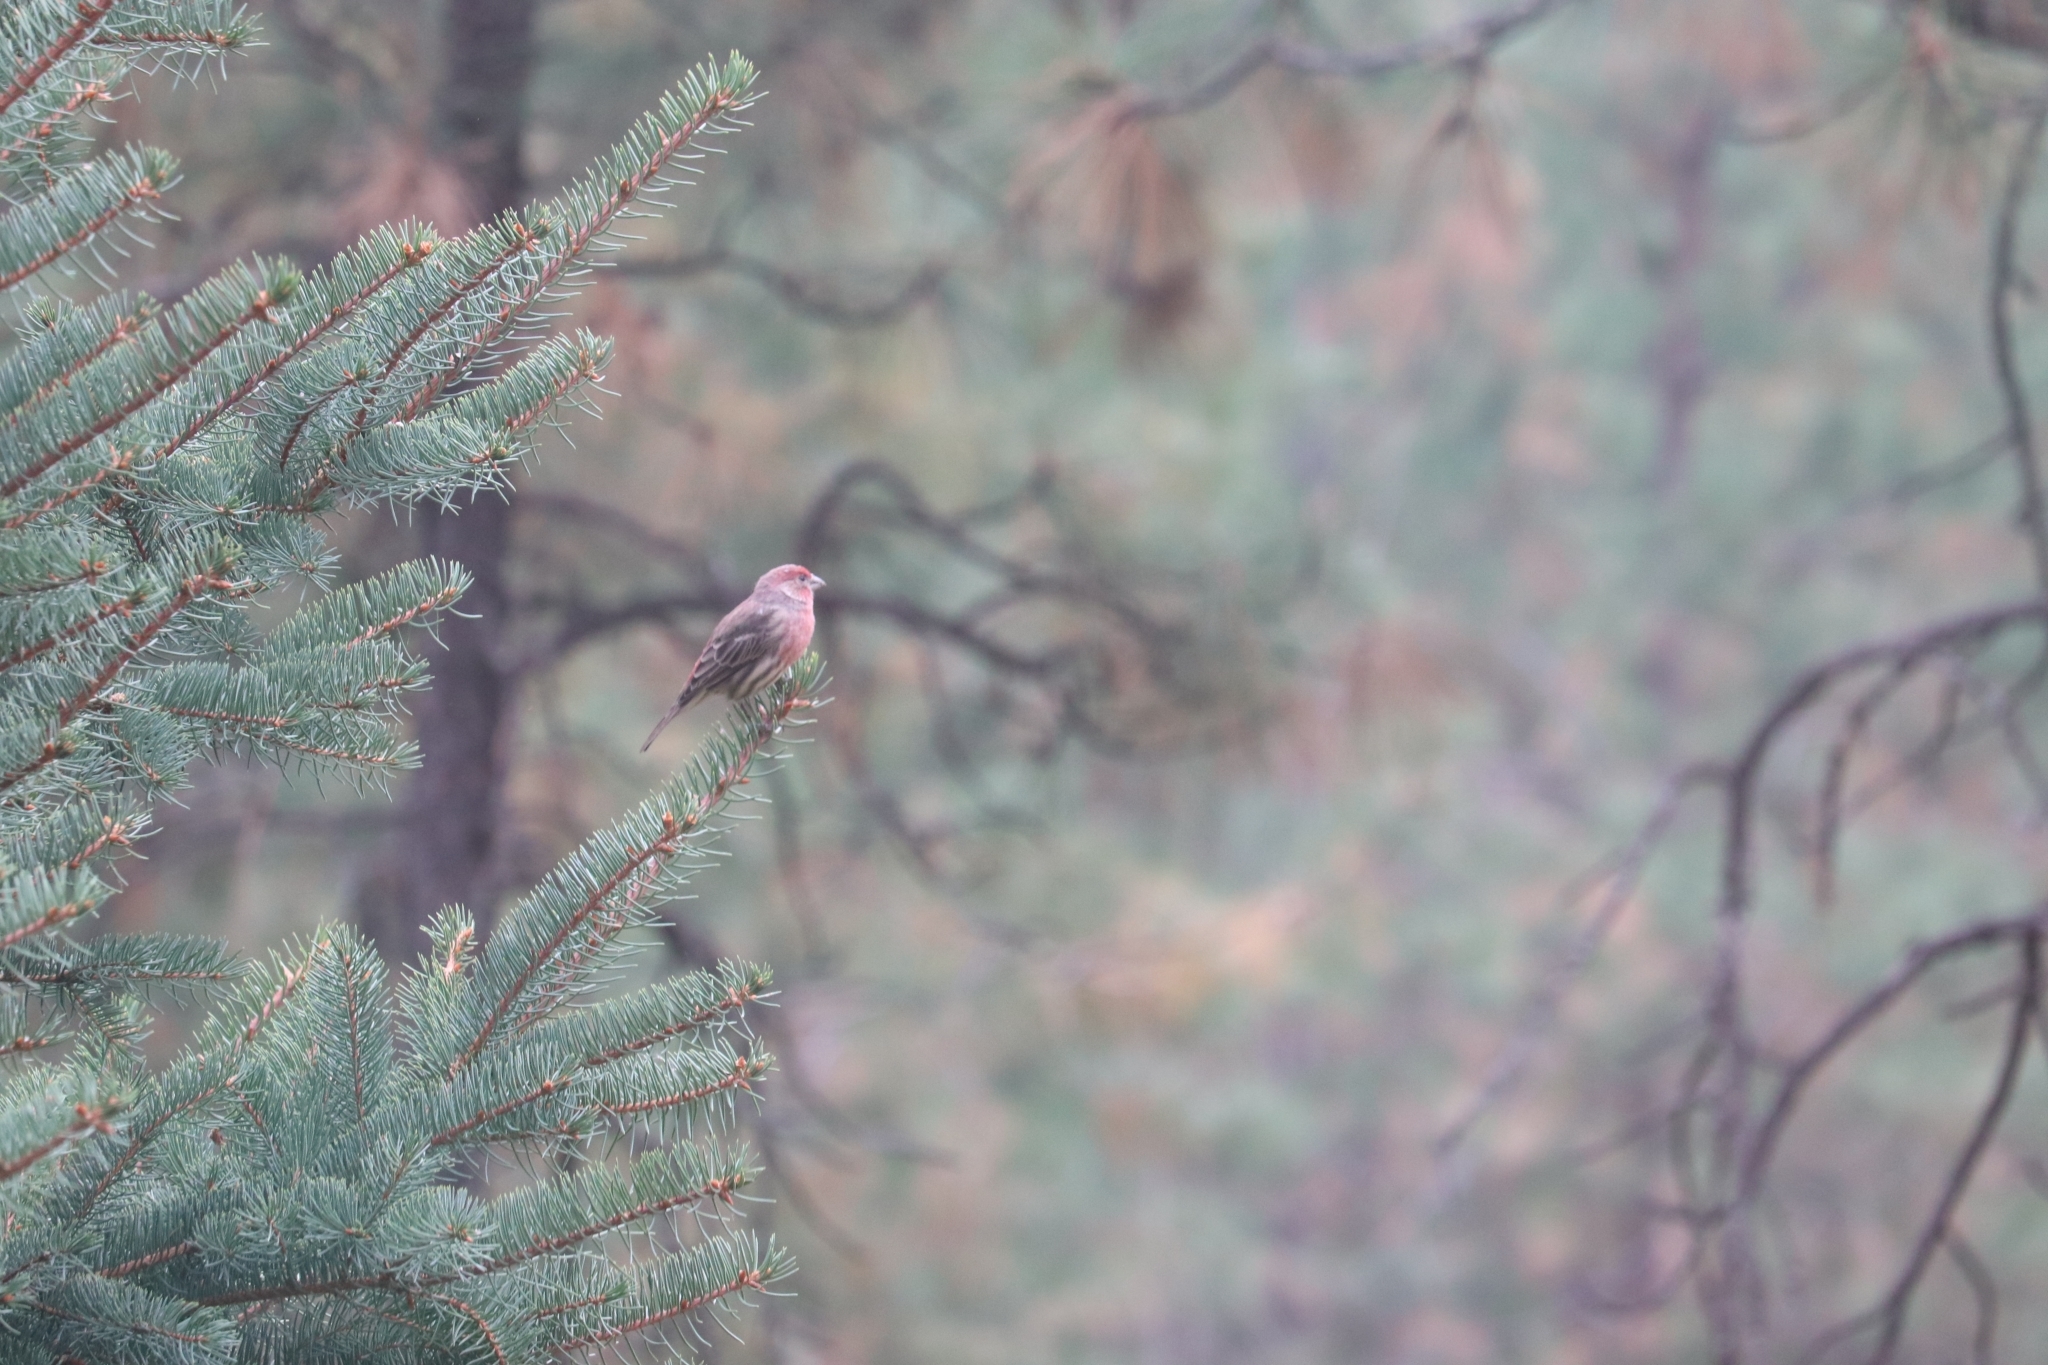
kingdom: Animalia
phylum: Chordata
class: Aves
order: Passeriformes
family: Fringillidae
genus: Haemorhous
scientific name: Haemorhous mexicanus
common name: House finch
